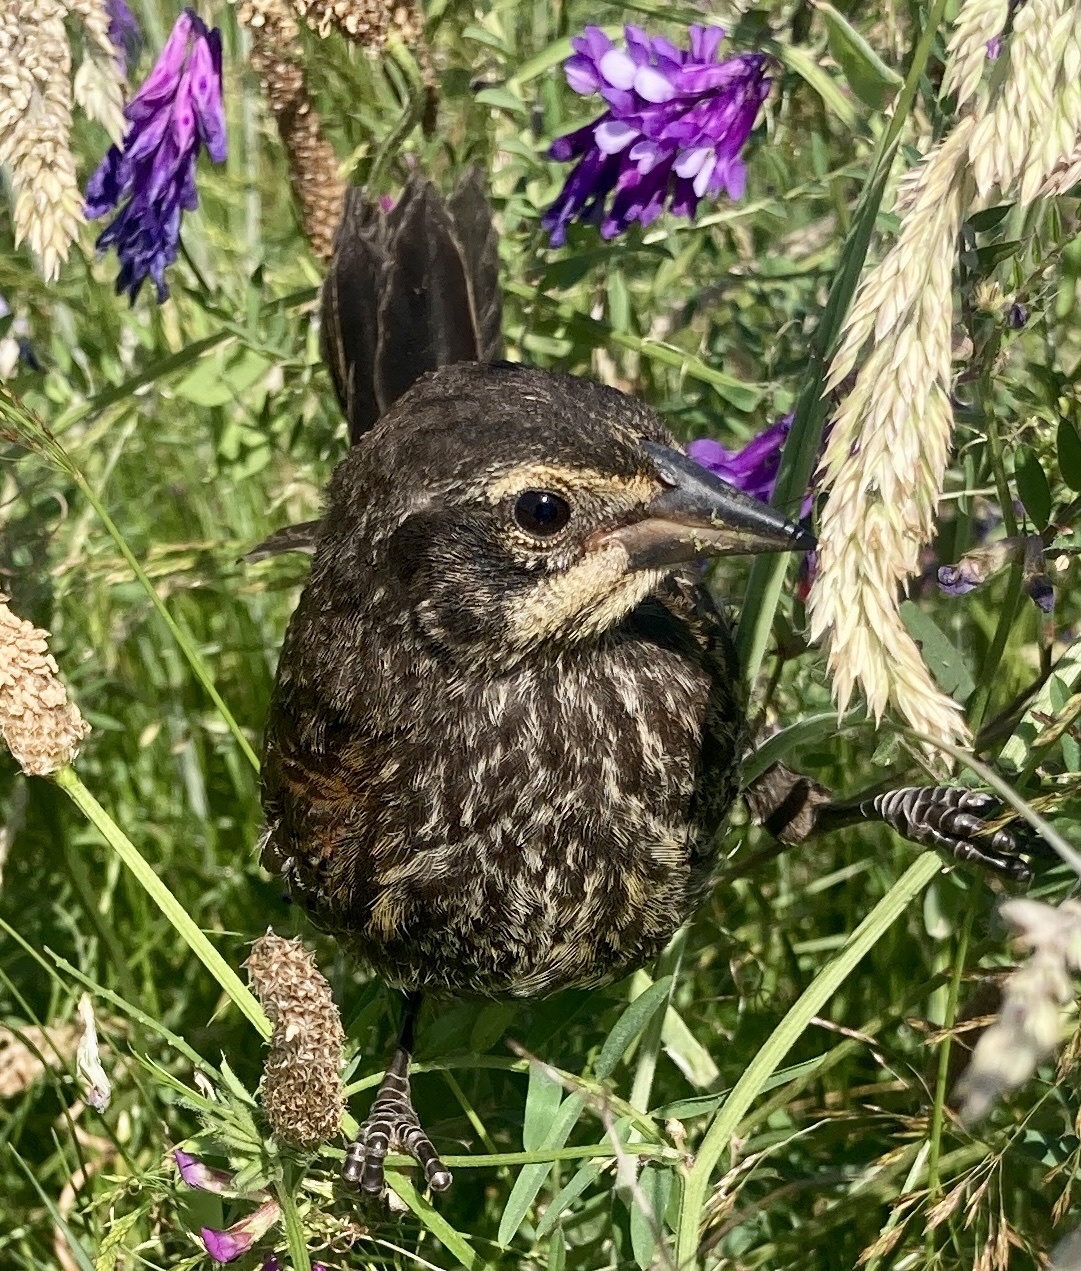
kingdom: Animalia
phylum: Chordata
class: Aves
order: Passeriformes
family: Icteridae
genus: Agelaius
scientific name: Agelaius phoeniceus
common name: Red-winged blackbird
